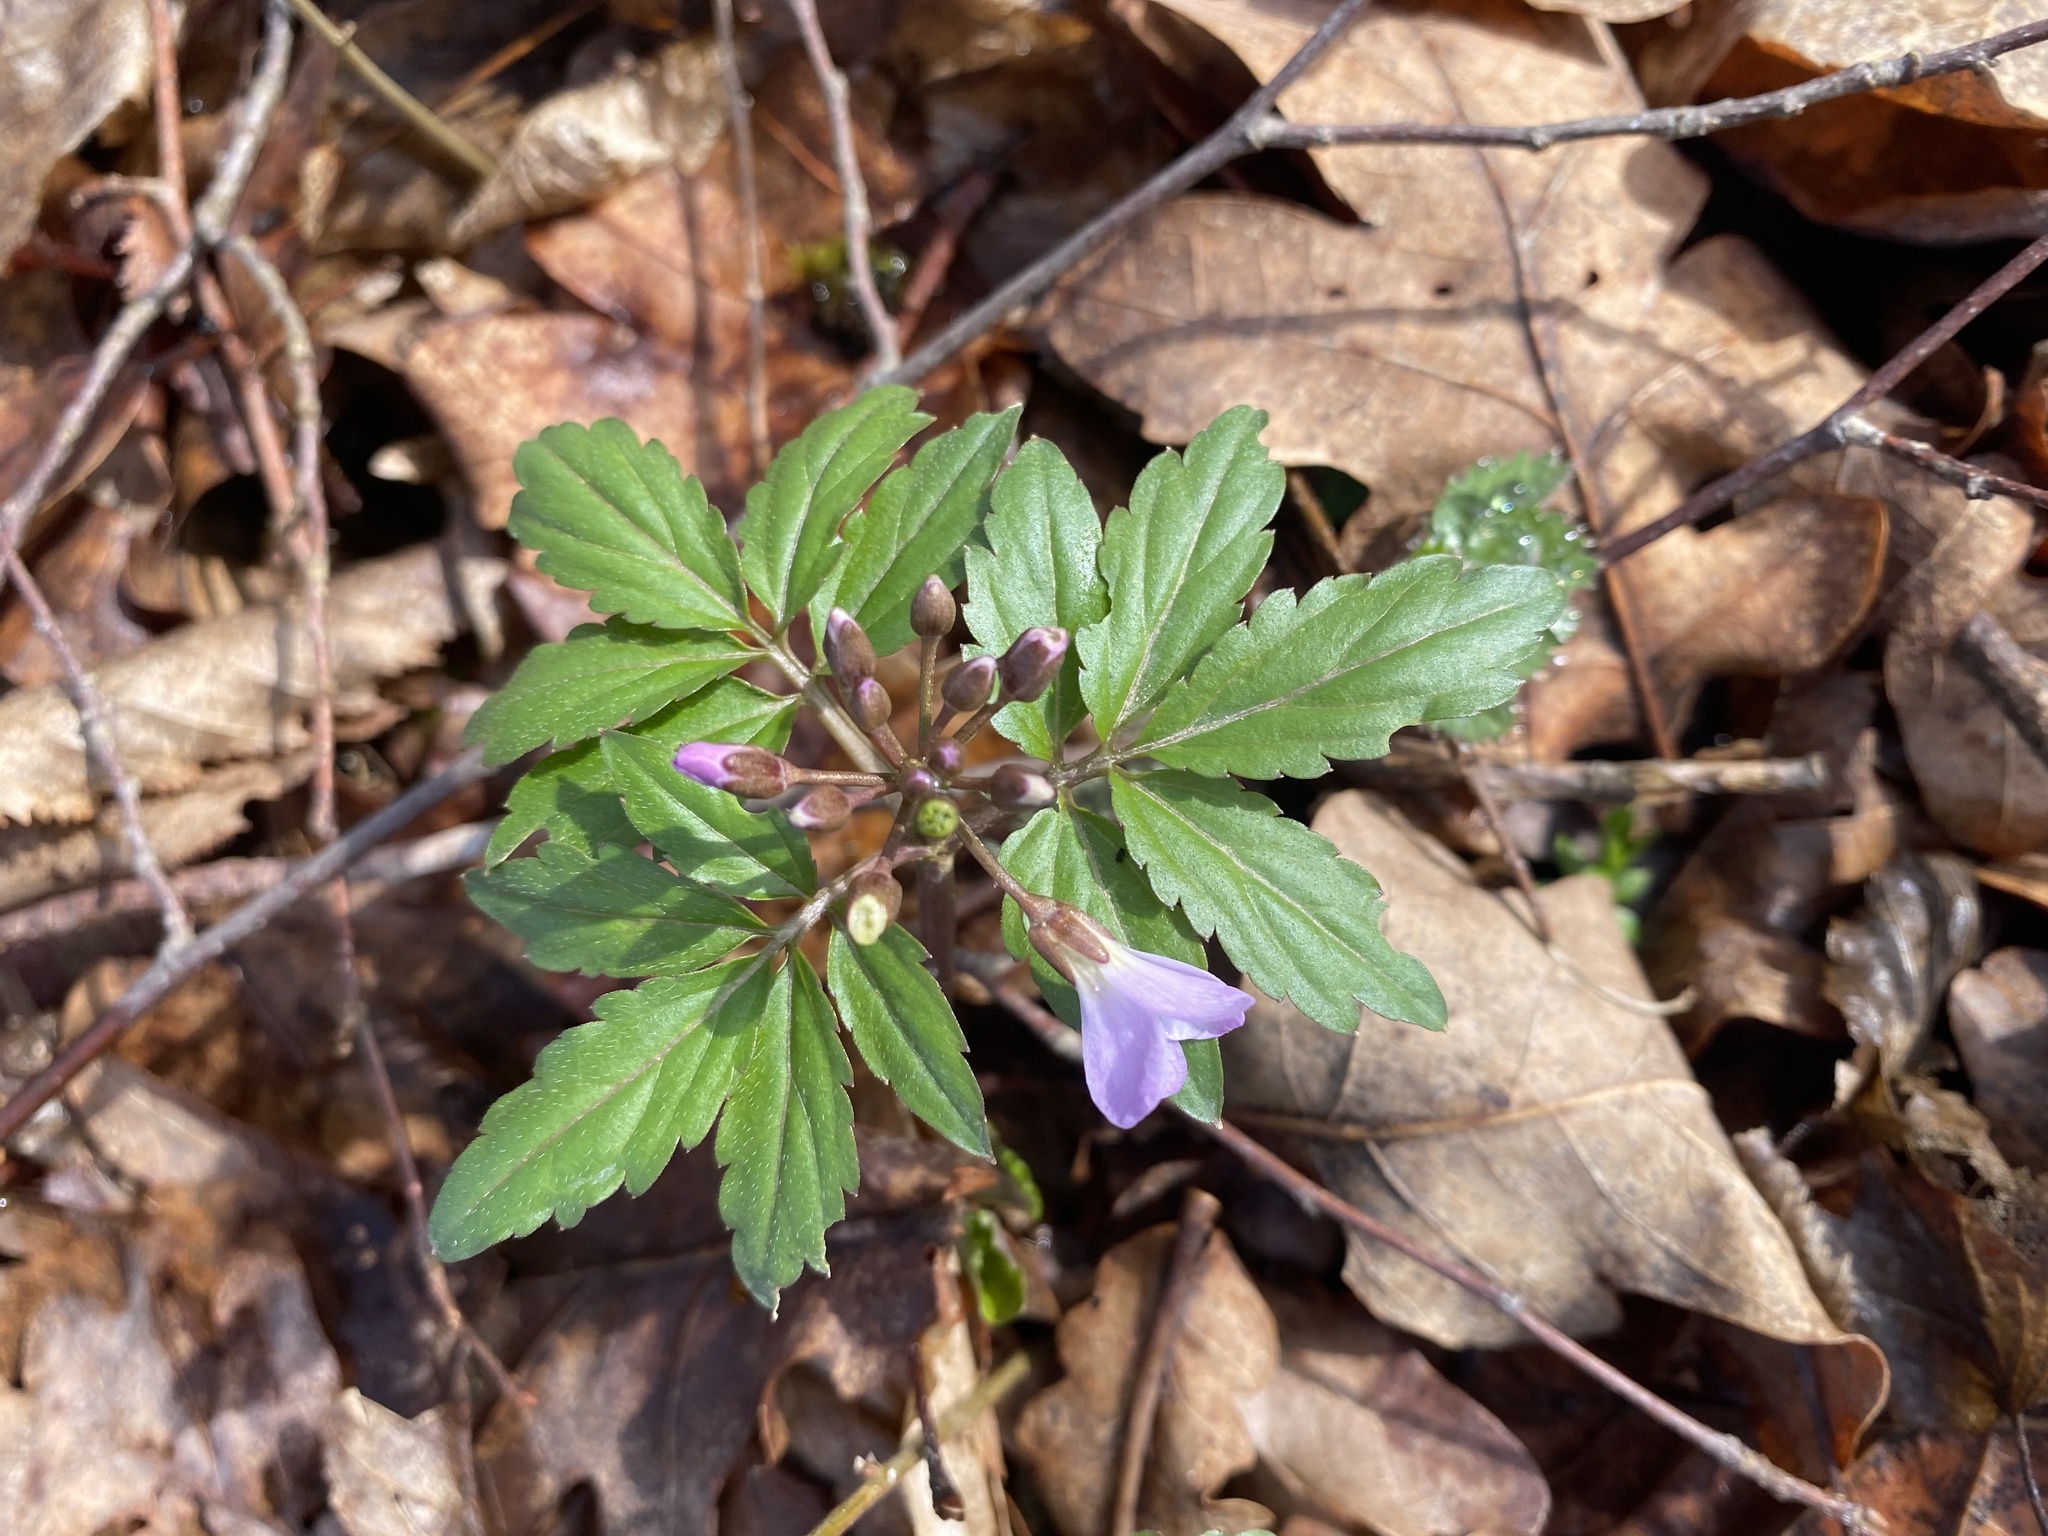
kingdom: Plantae
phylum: Tracheophyta
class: Magnoliopsida
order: Brassicales
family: Brassicaceae
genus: Cardamine
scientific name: Cardamine quinquefolia
